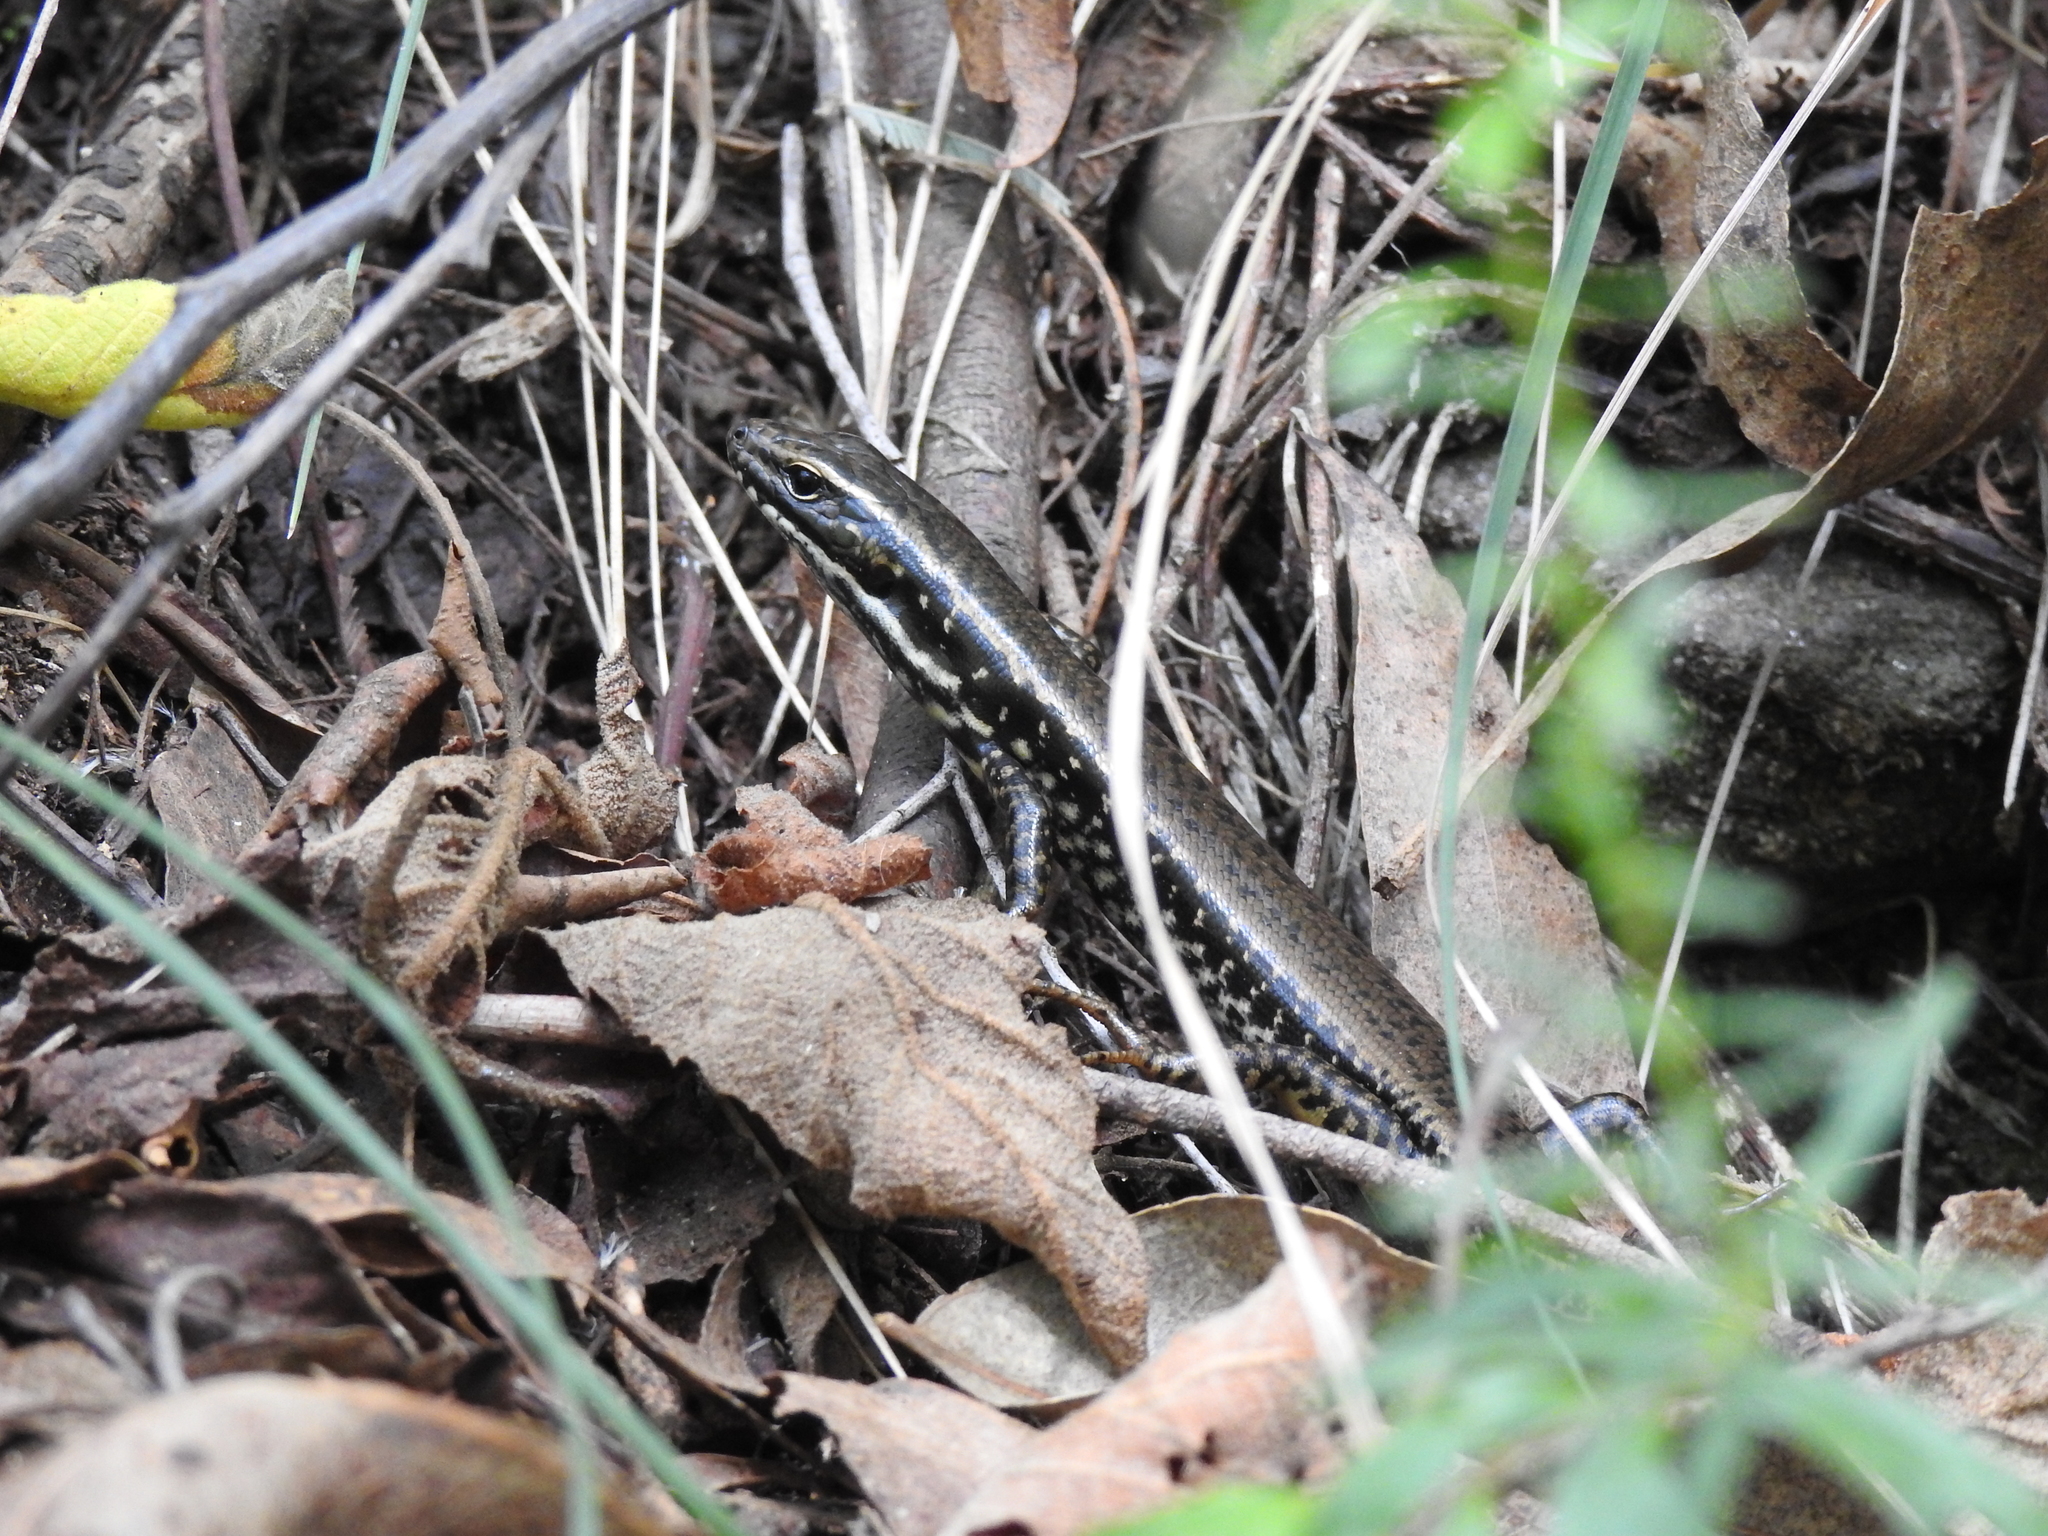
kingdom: Animalia
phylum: Chordata
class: Squamata
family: Scincidae
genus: Eulamprus
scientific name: Eulamprus heatwolei
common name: Warm-temperate water-skink
